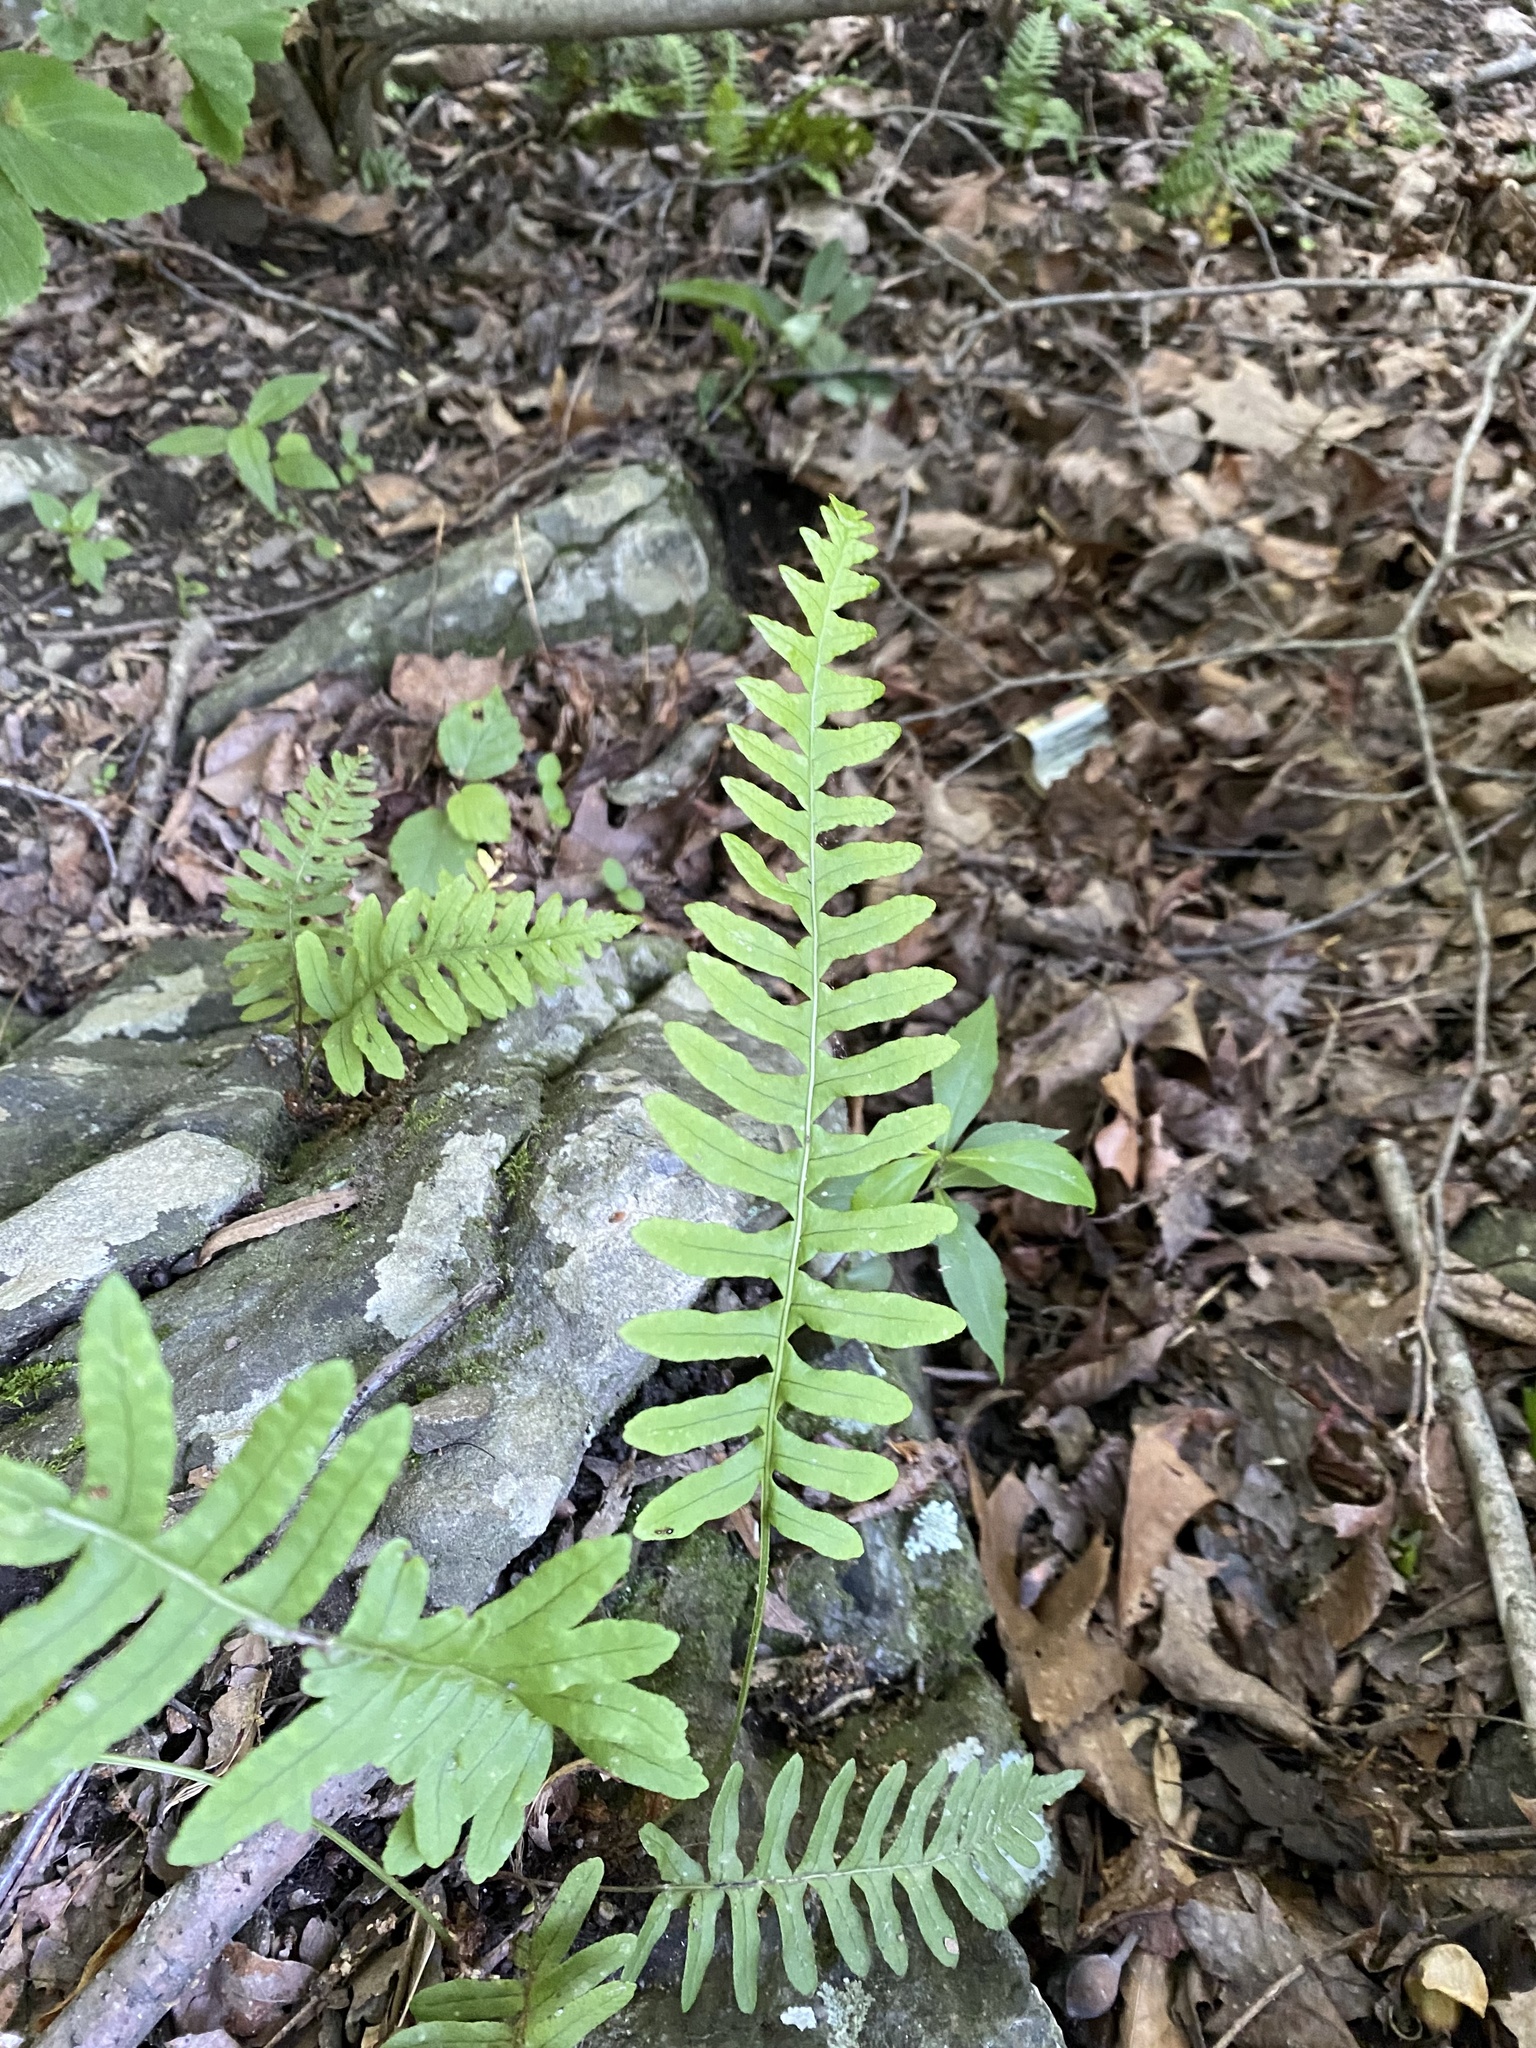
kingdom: Plantae
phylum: Tracheophyta
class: Polypodiopsida
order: Polypodiales
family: Polypodiaceae
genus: Polypodium
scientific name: Polypodium virginianum
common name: American wall fern
